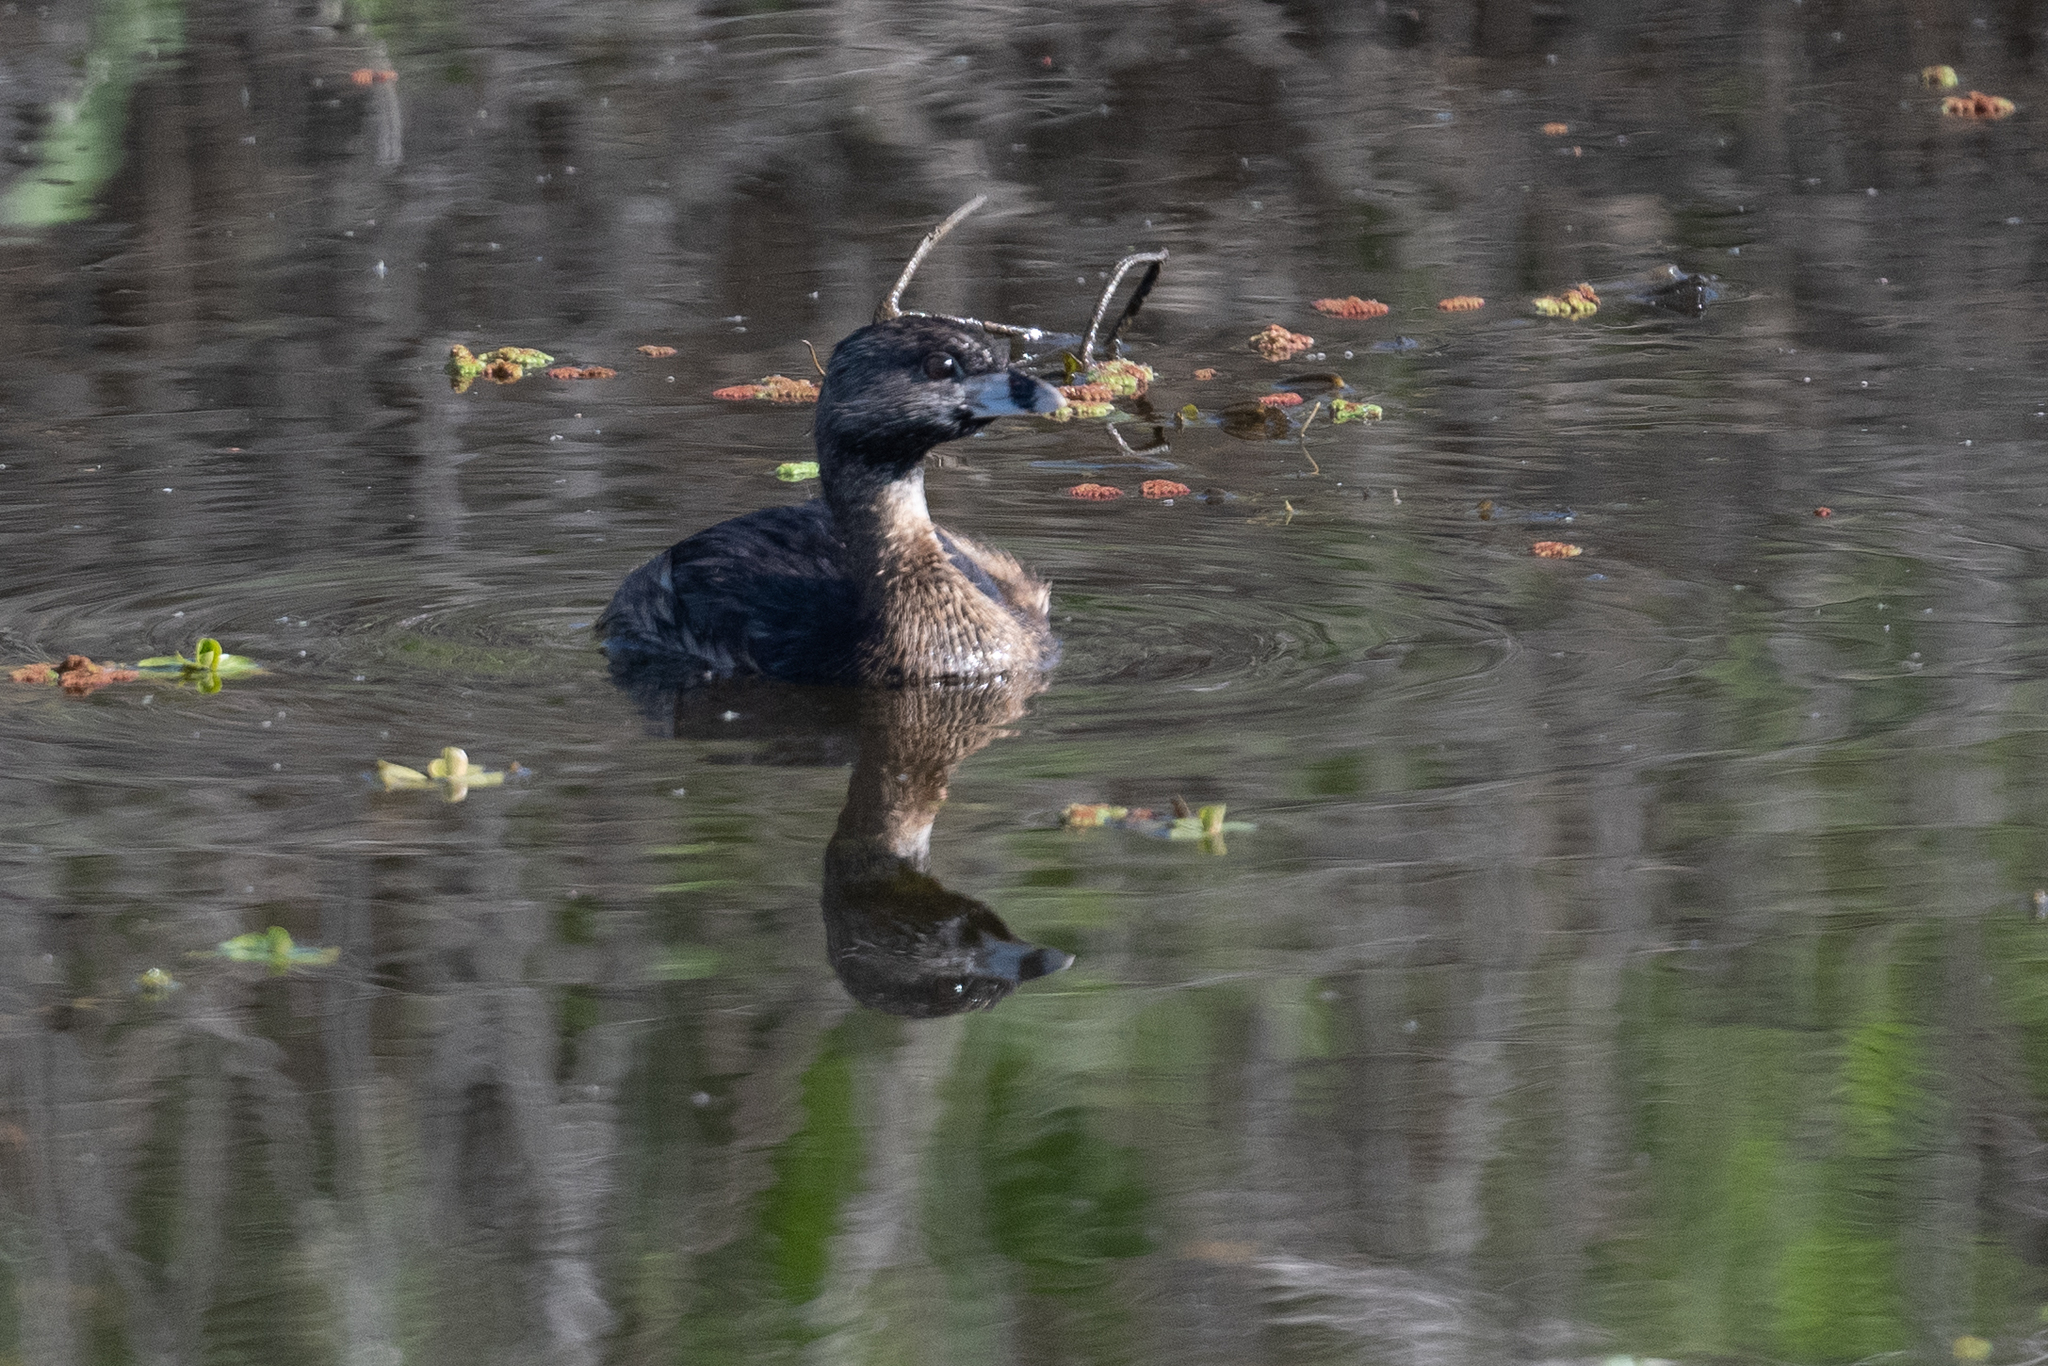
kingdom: Animalia
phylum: Chordata
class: Aves
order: Podicipediformes
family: Podicipedidae
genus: Podilymbus
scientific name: Podilymbus podiceps
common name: Pied-billed grebe
